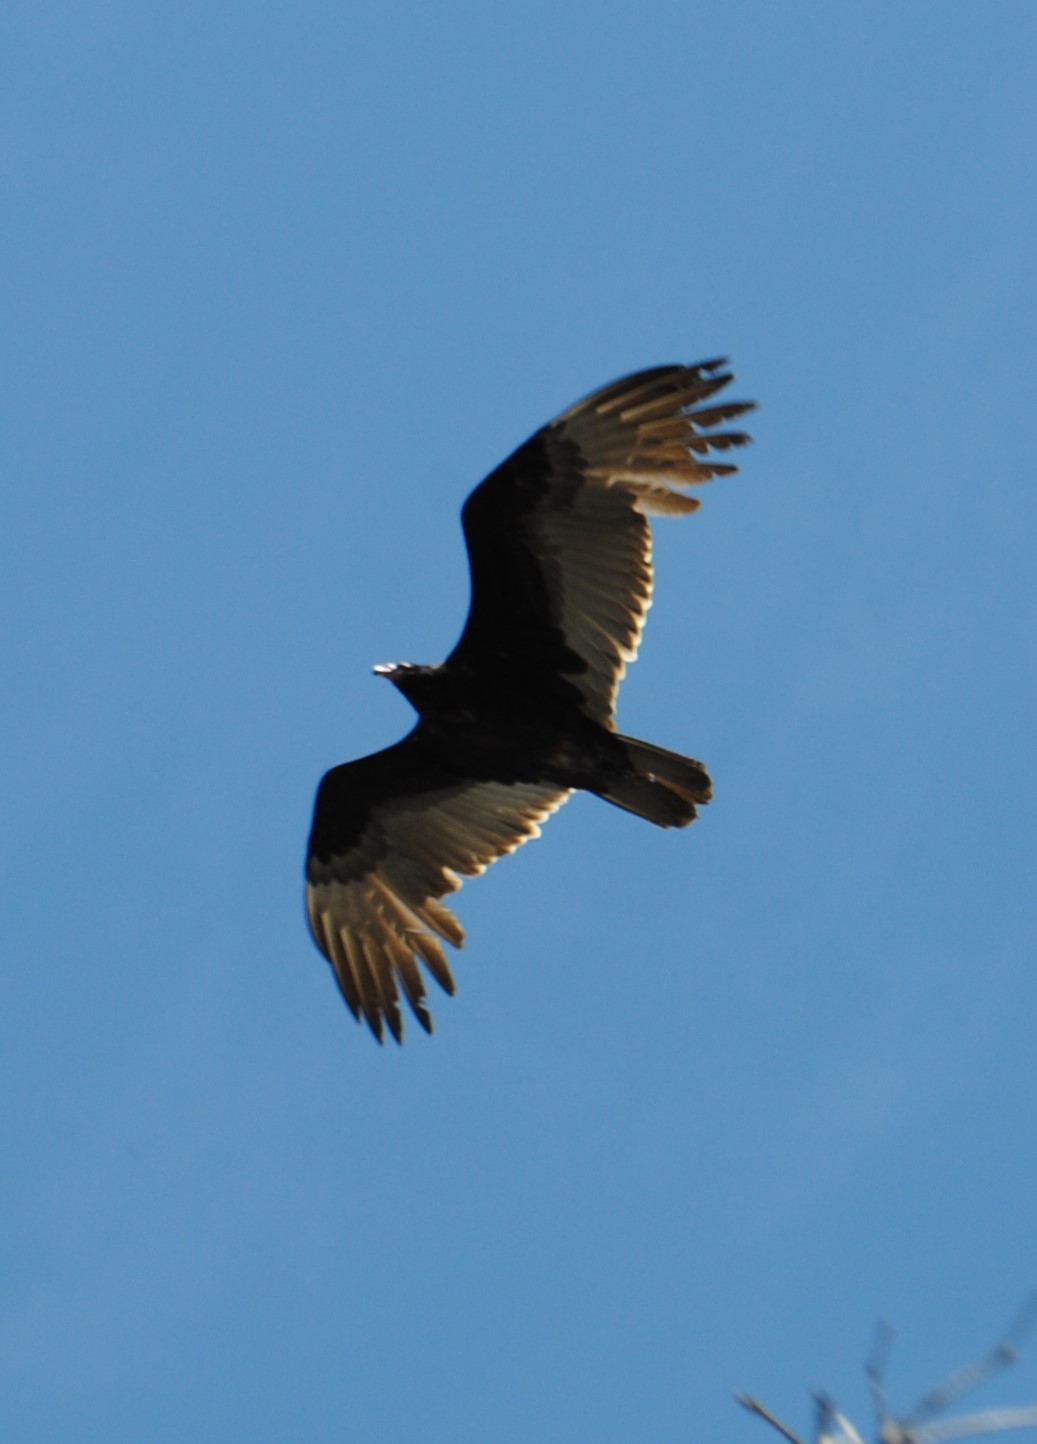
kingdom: Animalia
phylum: Chordata
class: Aves
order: Accipitriformes
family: Cathartidae
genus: Cathartes
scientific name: Cathartes aura
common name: Turkey vulture
